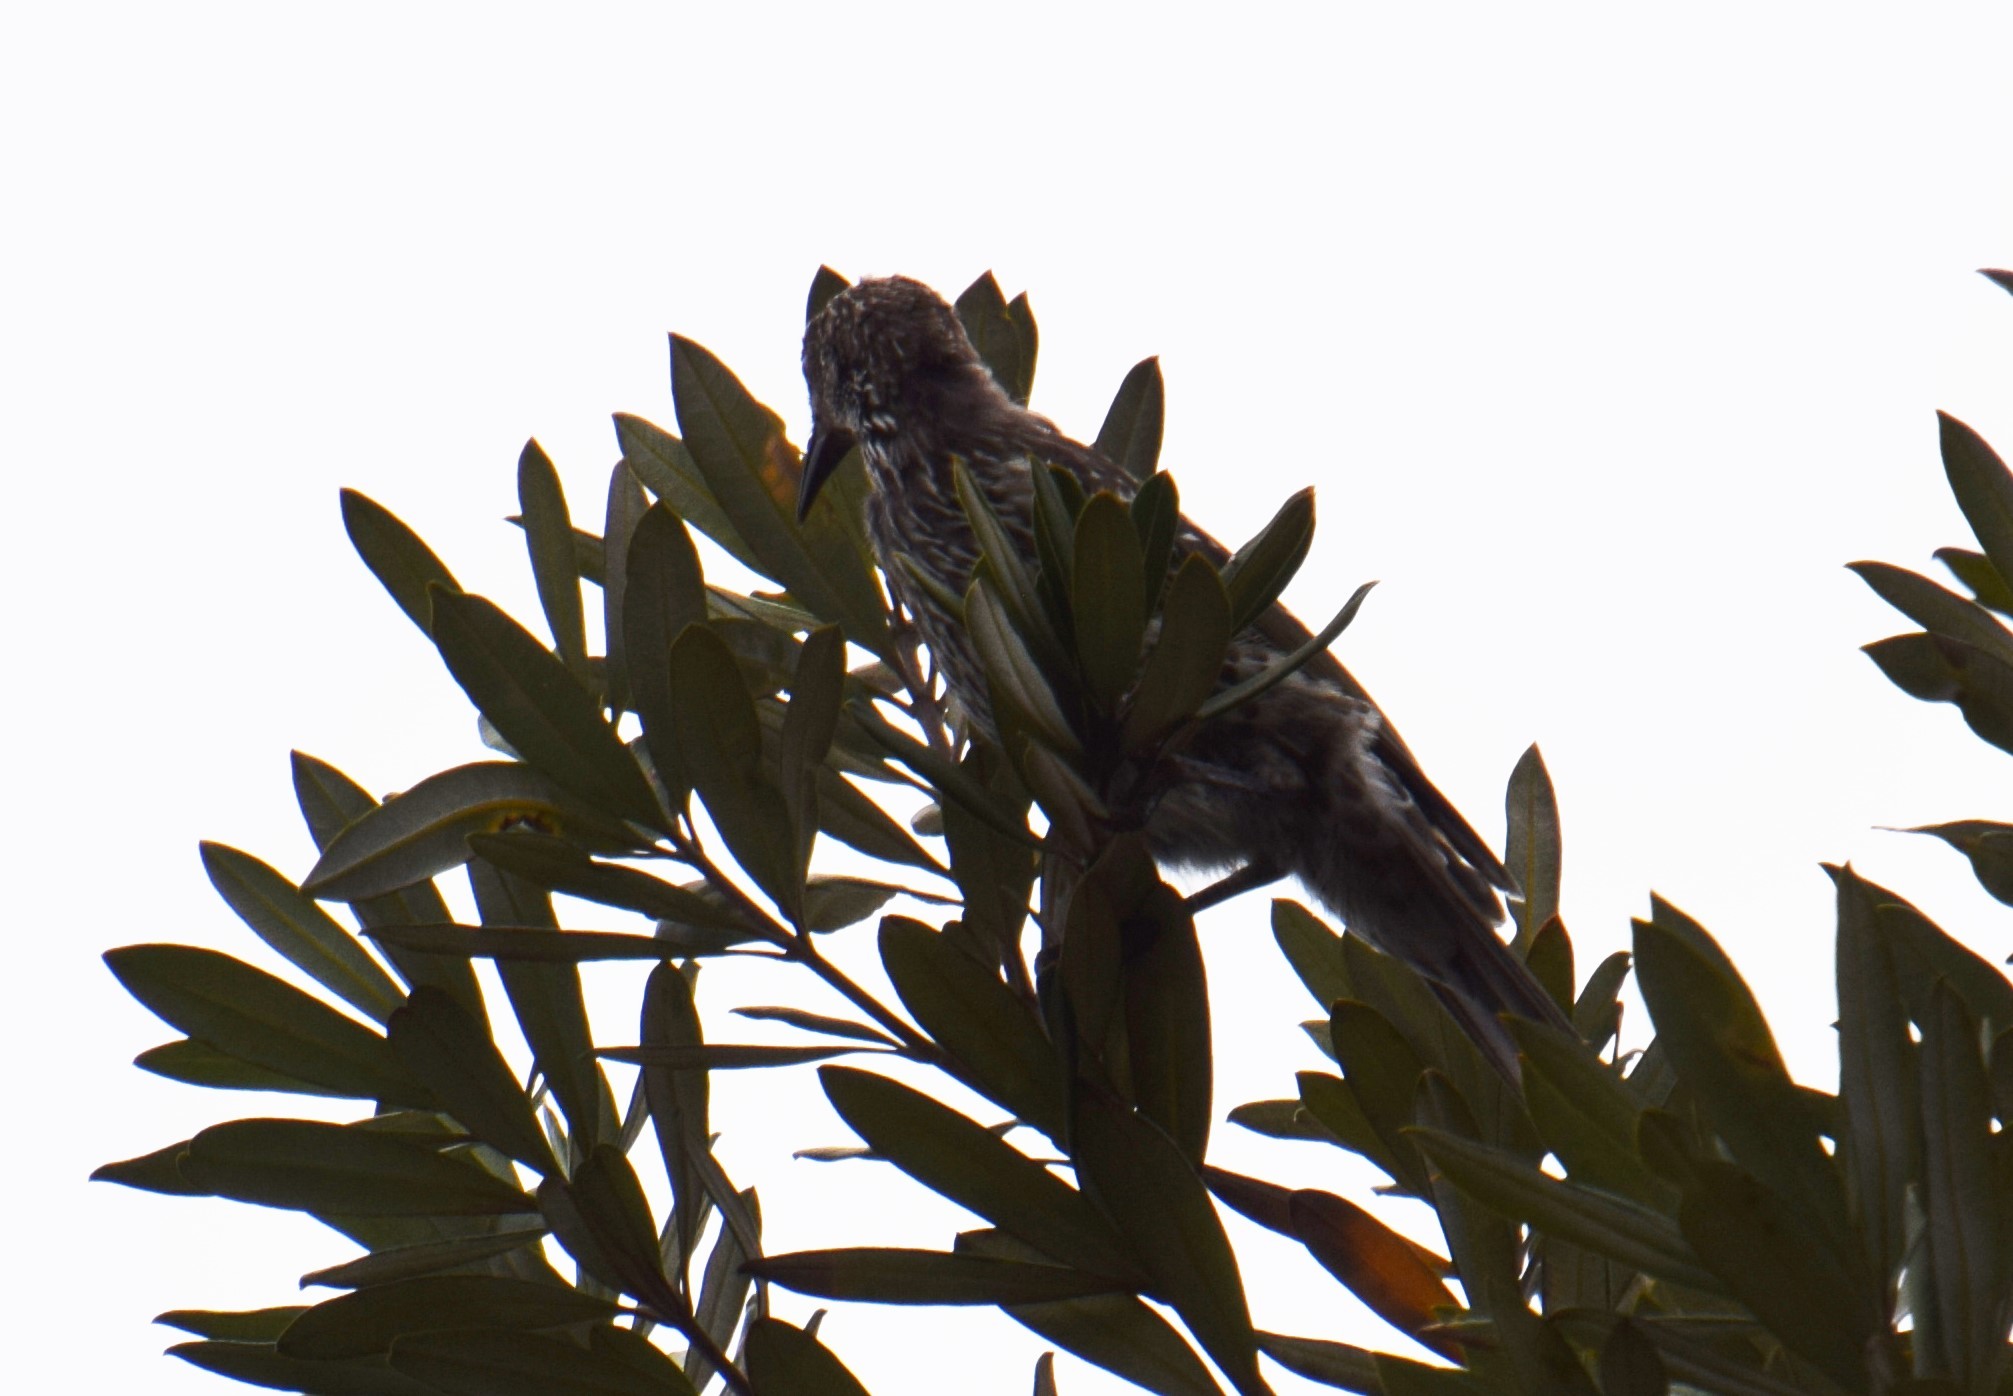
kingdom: Animalia
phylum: Chordata
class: Aves
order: Passeriformes
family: Meliphagidae
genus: Anthochaera
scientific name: Anthochaera chrysoptera
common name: Little wattlebird
